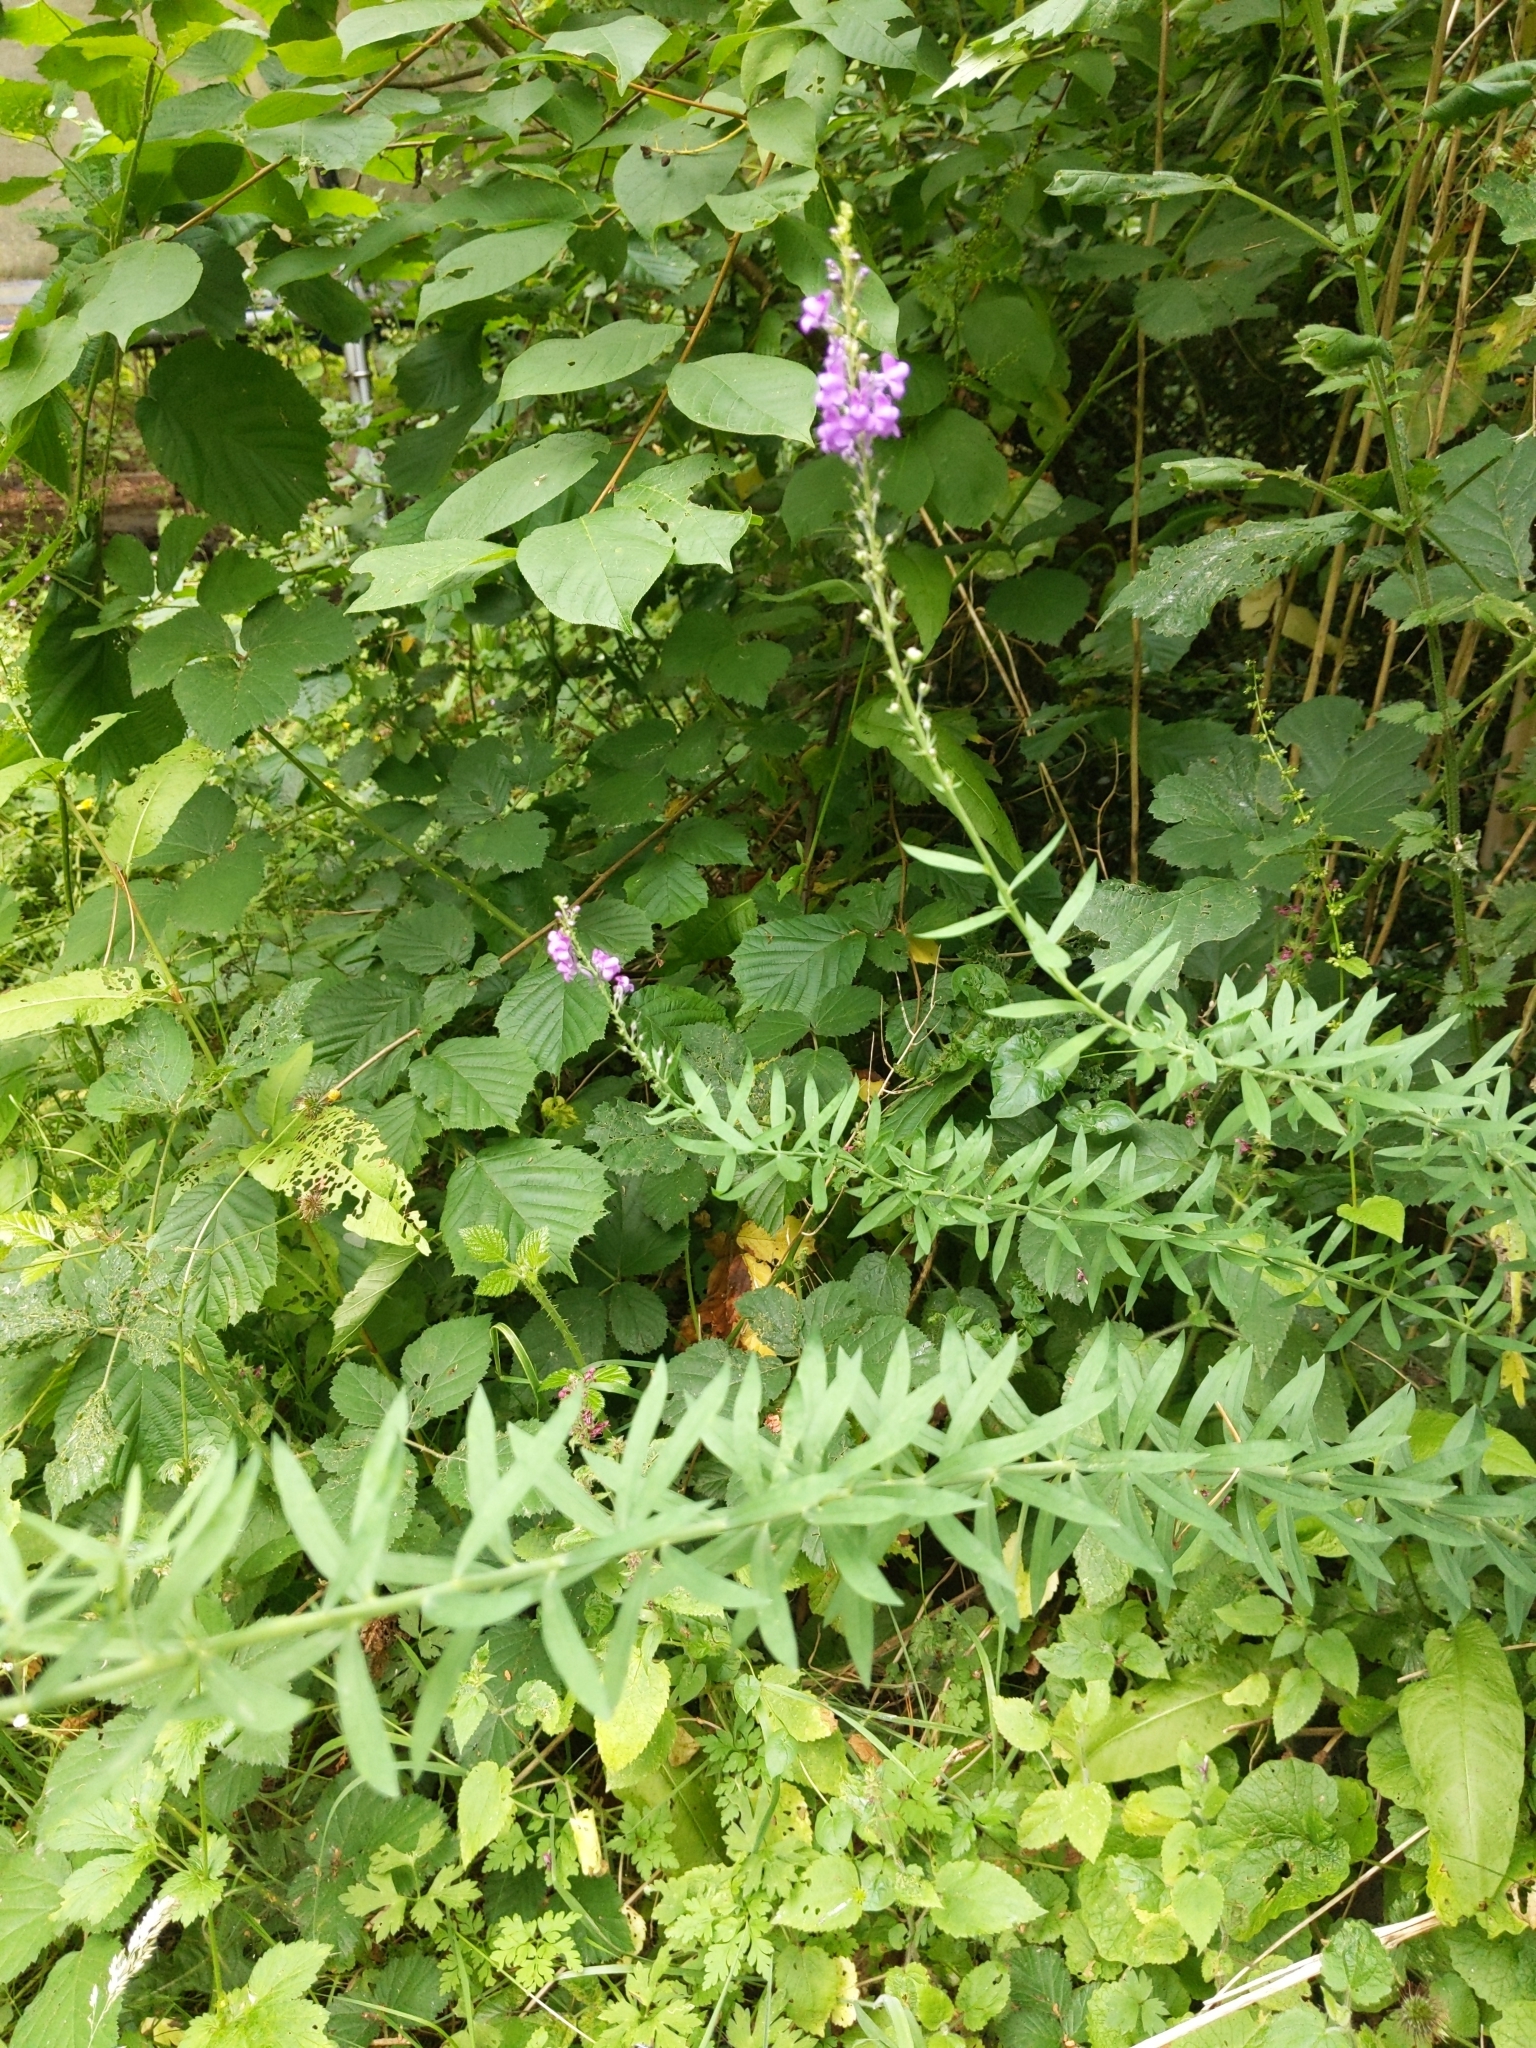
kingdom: Plantae
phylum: Tracheophyta
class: Magnoliopsida
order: Lamiales
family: Plantaginaceae
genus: Linaria
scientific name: Linaria purpurea
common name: Purple toadflax
